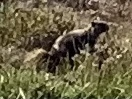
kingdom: Animalia
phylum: Chordata
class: Mammalia
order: Rodentia
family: Sciuridae
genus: Marmota
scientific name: Marmota olympus
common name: Olympic marmot
